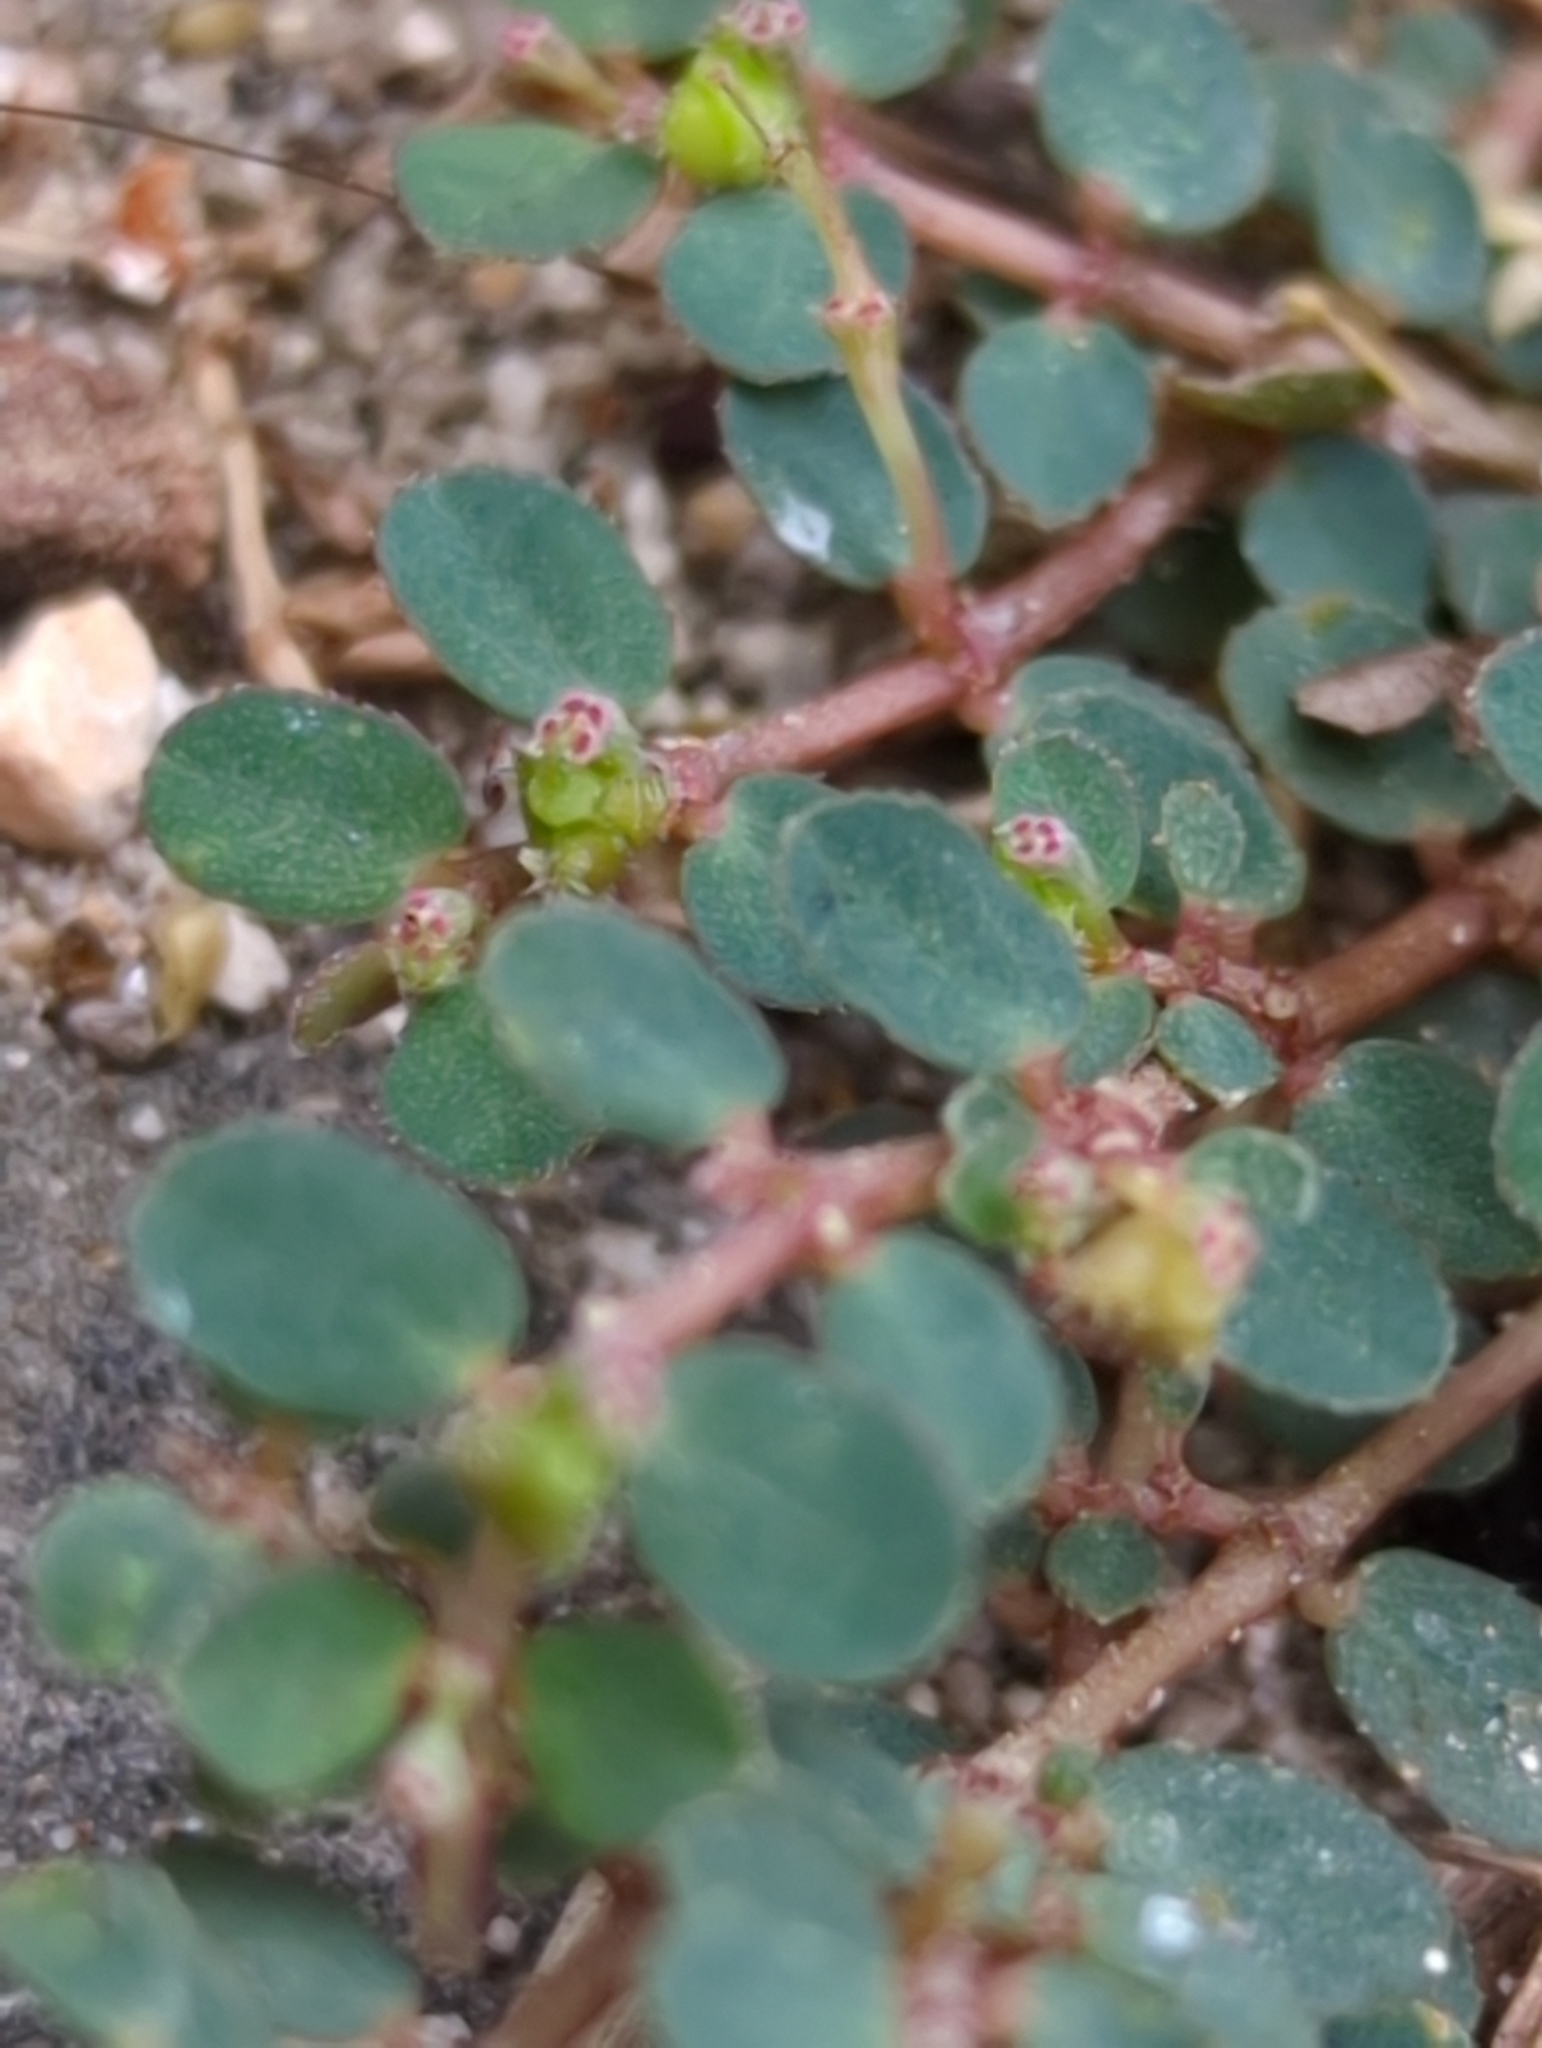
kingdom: Plantae
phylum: Tracheophyta
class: Magnoliopsida
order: Malpighiales
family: Euphorbiaceae
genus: Euphorbia
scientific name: Euphorbia prostrata
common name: Prostrate sandmat
